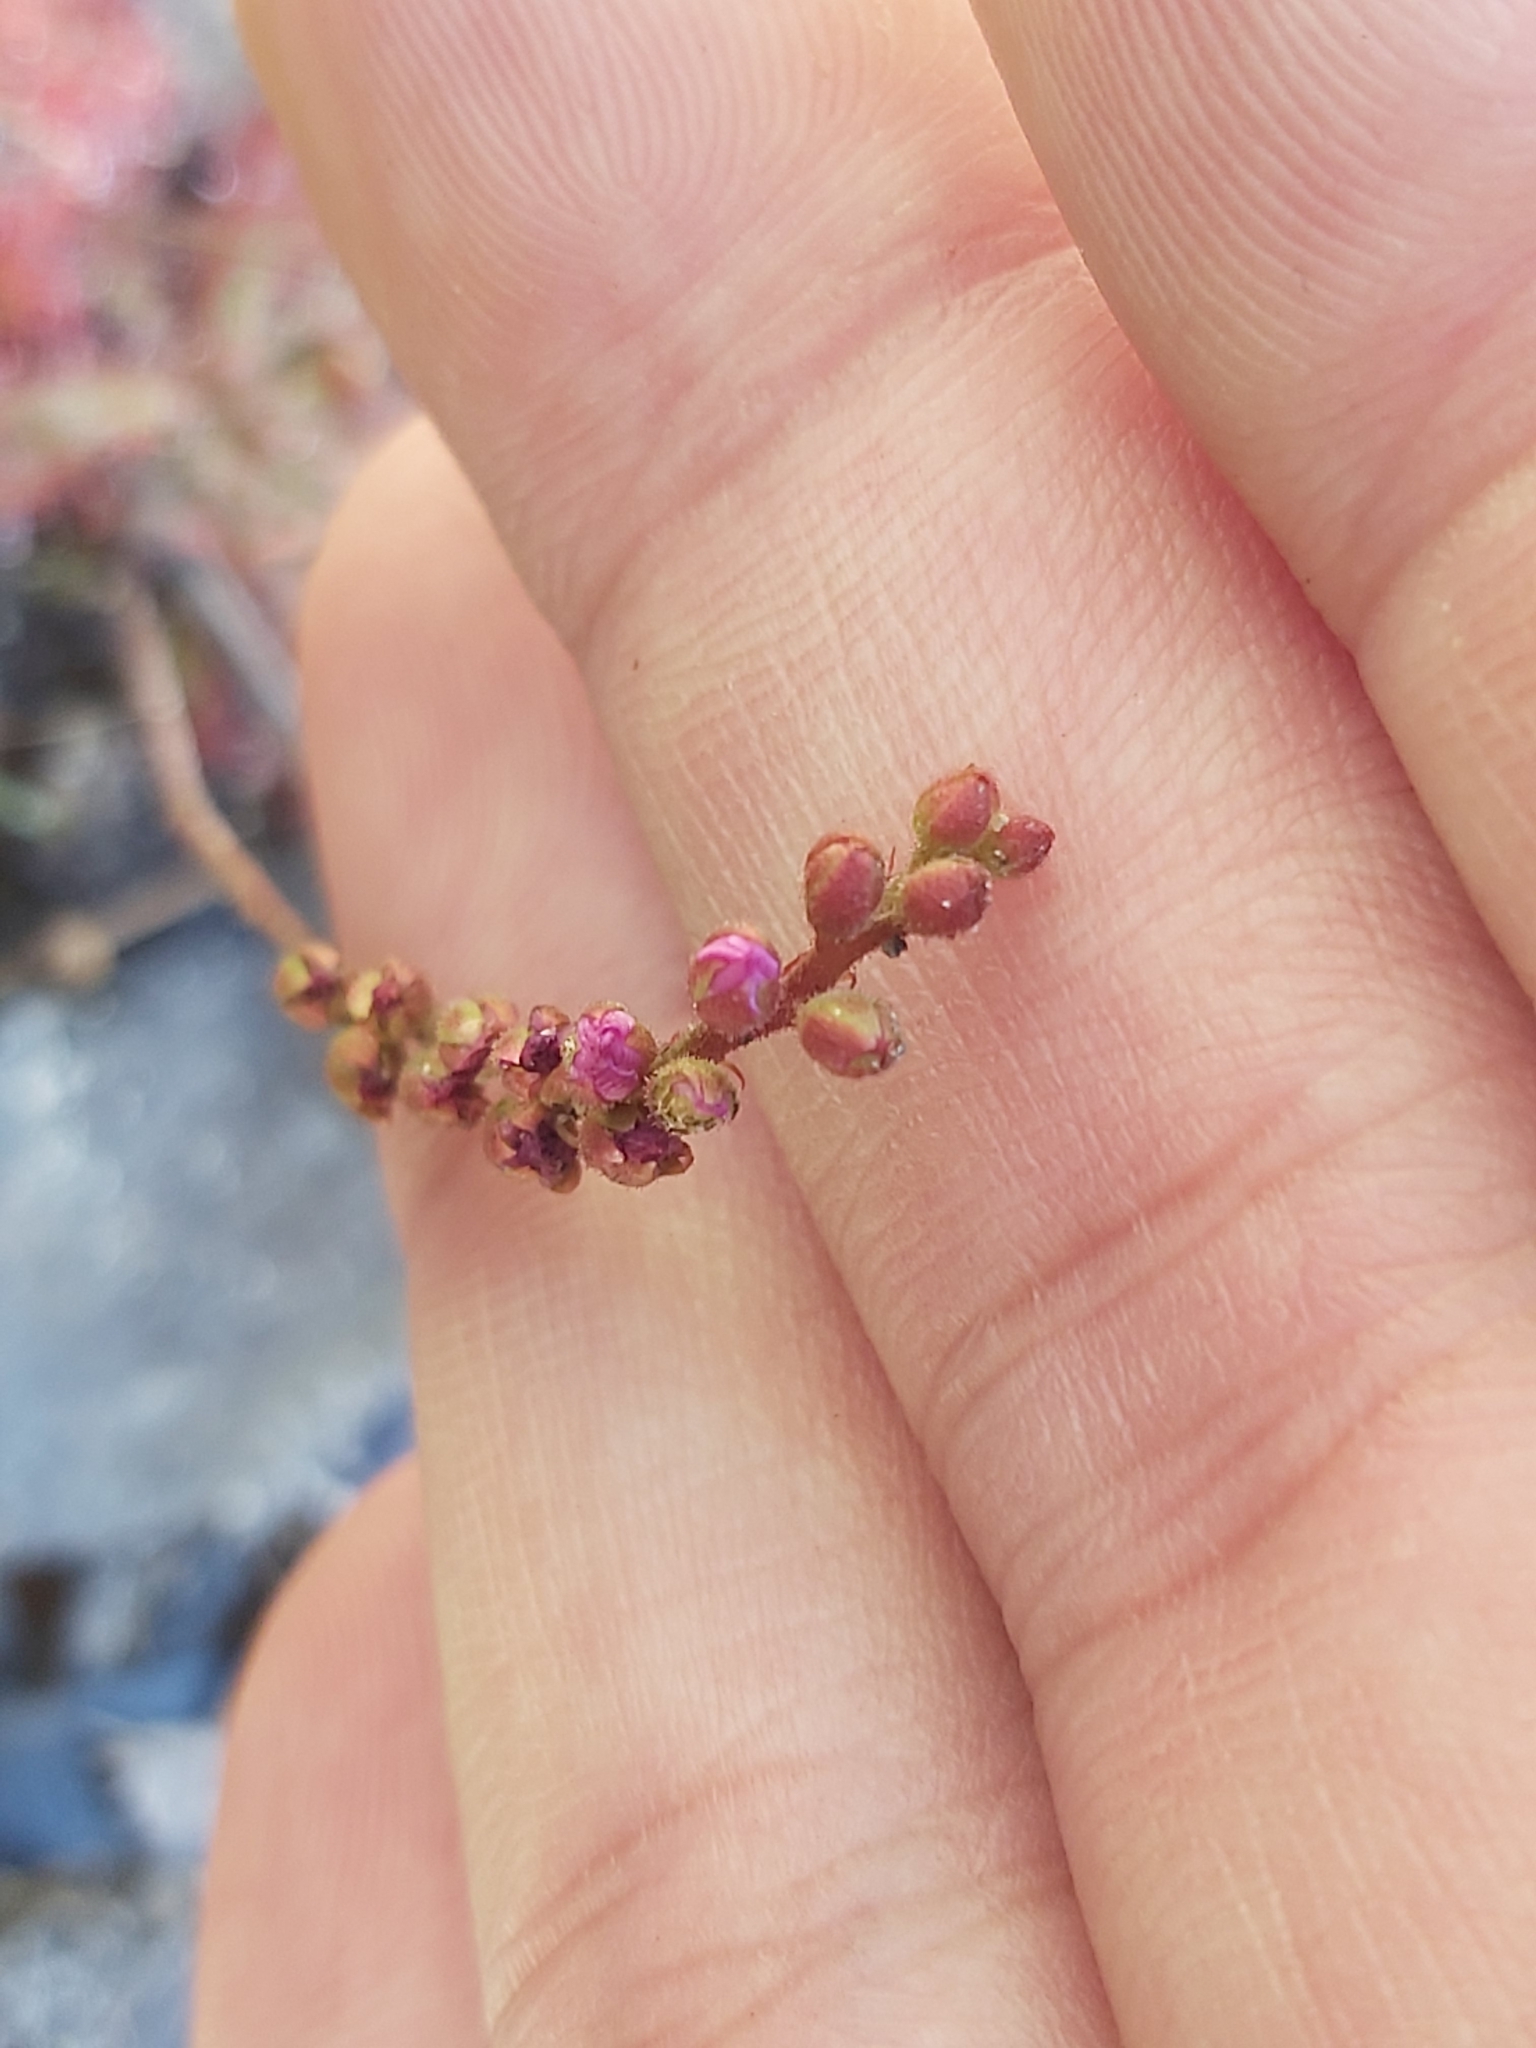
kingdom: Plantae
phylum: Tracheophyta
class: Magnoliopsida
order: Caryophyllales
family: Droseraceae
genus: Drosera
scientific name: Drosera spatulata
